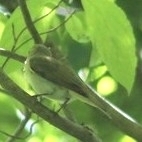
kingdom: Animalia
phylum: Chordata
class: Aves
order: Passeriformes
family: Vireonidae
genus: Vireo
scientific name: Vireo olivaceus
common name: Red-eyed vireo
